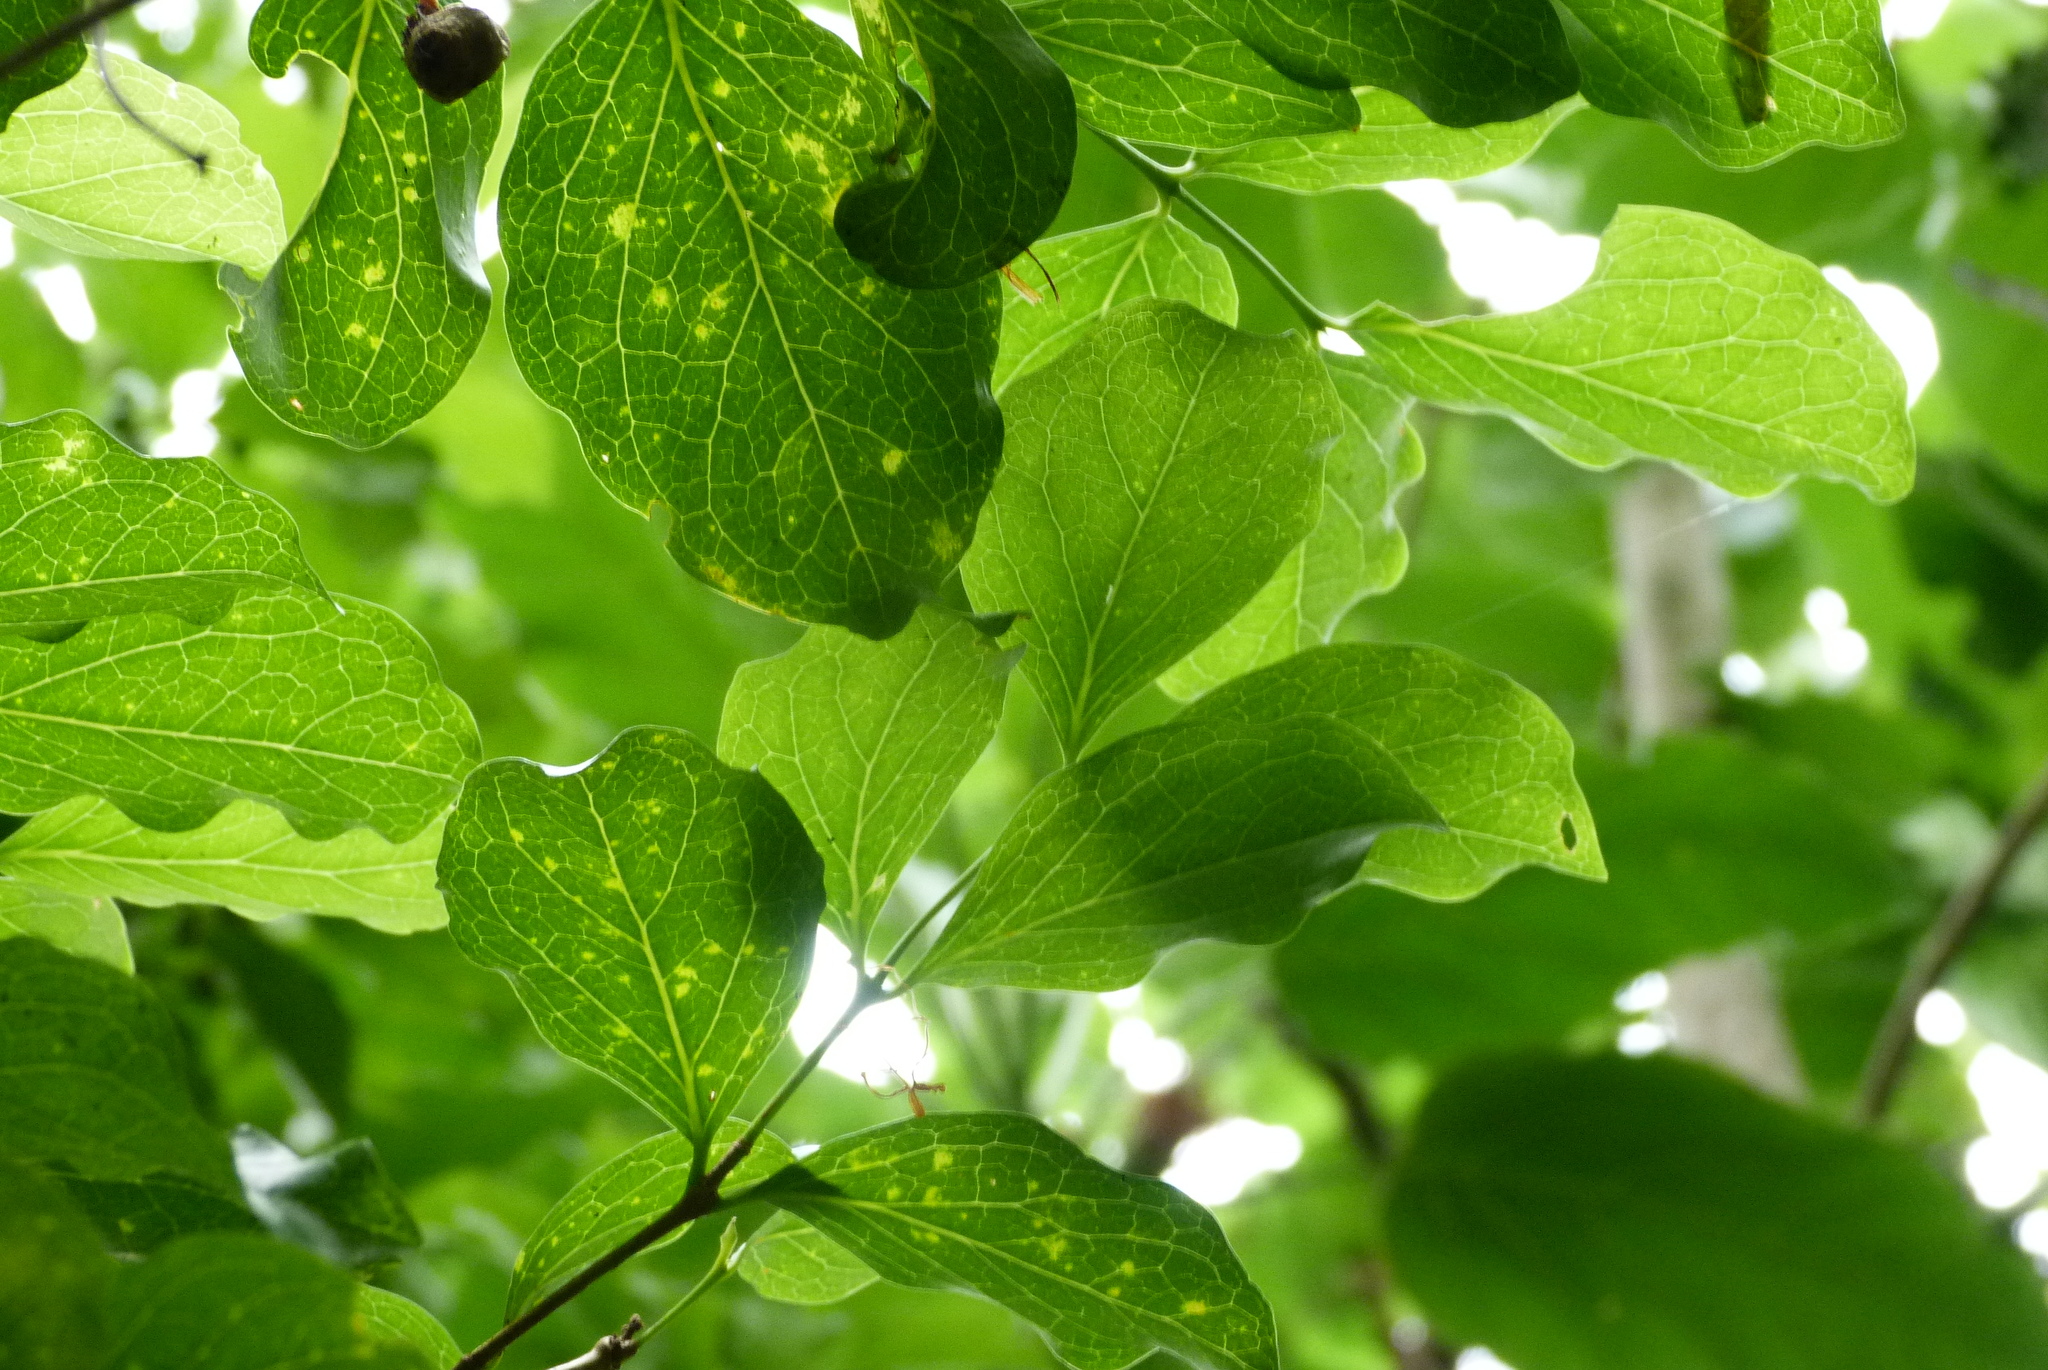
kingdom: Plantae
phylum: Tracheophyta
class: Magnoliopsida
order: Gentianales
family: Rubiaceae
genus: Cyclophyllum
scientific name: Cyclophyllum barbatum
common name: Cyclophyllum
